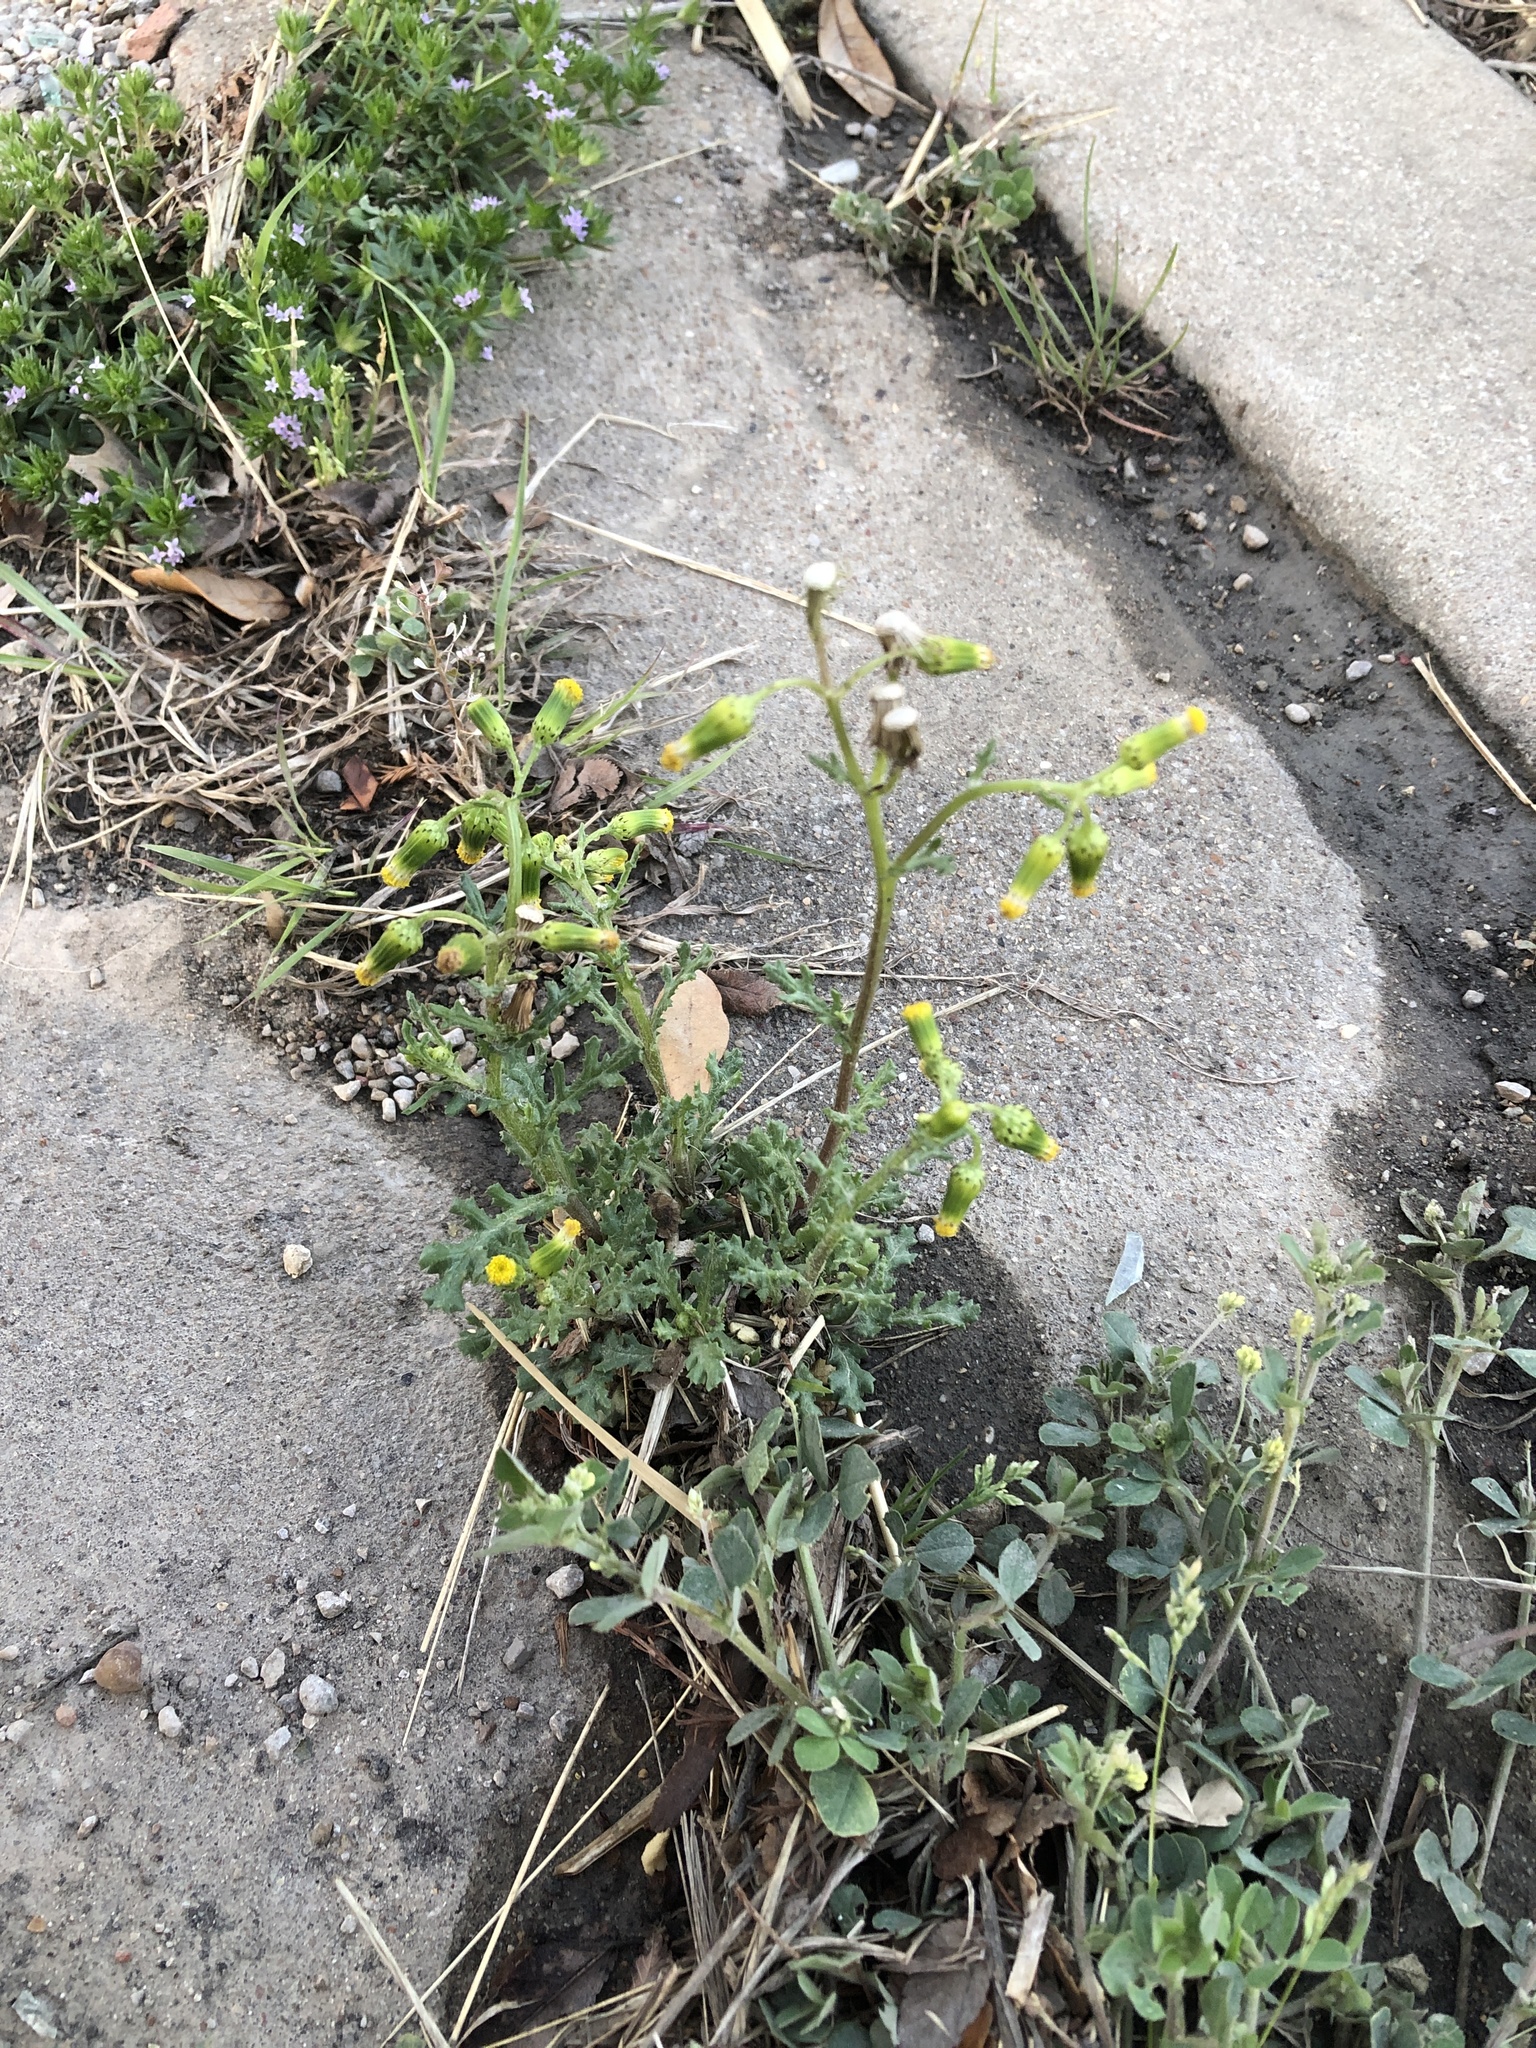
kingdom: Plantae
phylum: Tracheophyta
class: Magnoliopsida
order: Asterales
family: Asteraceae
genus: Senecio
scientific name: Senecio vulgaris
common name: Old-man-in-the-spring
